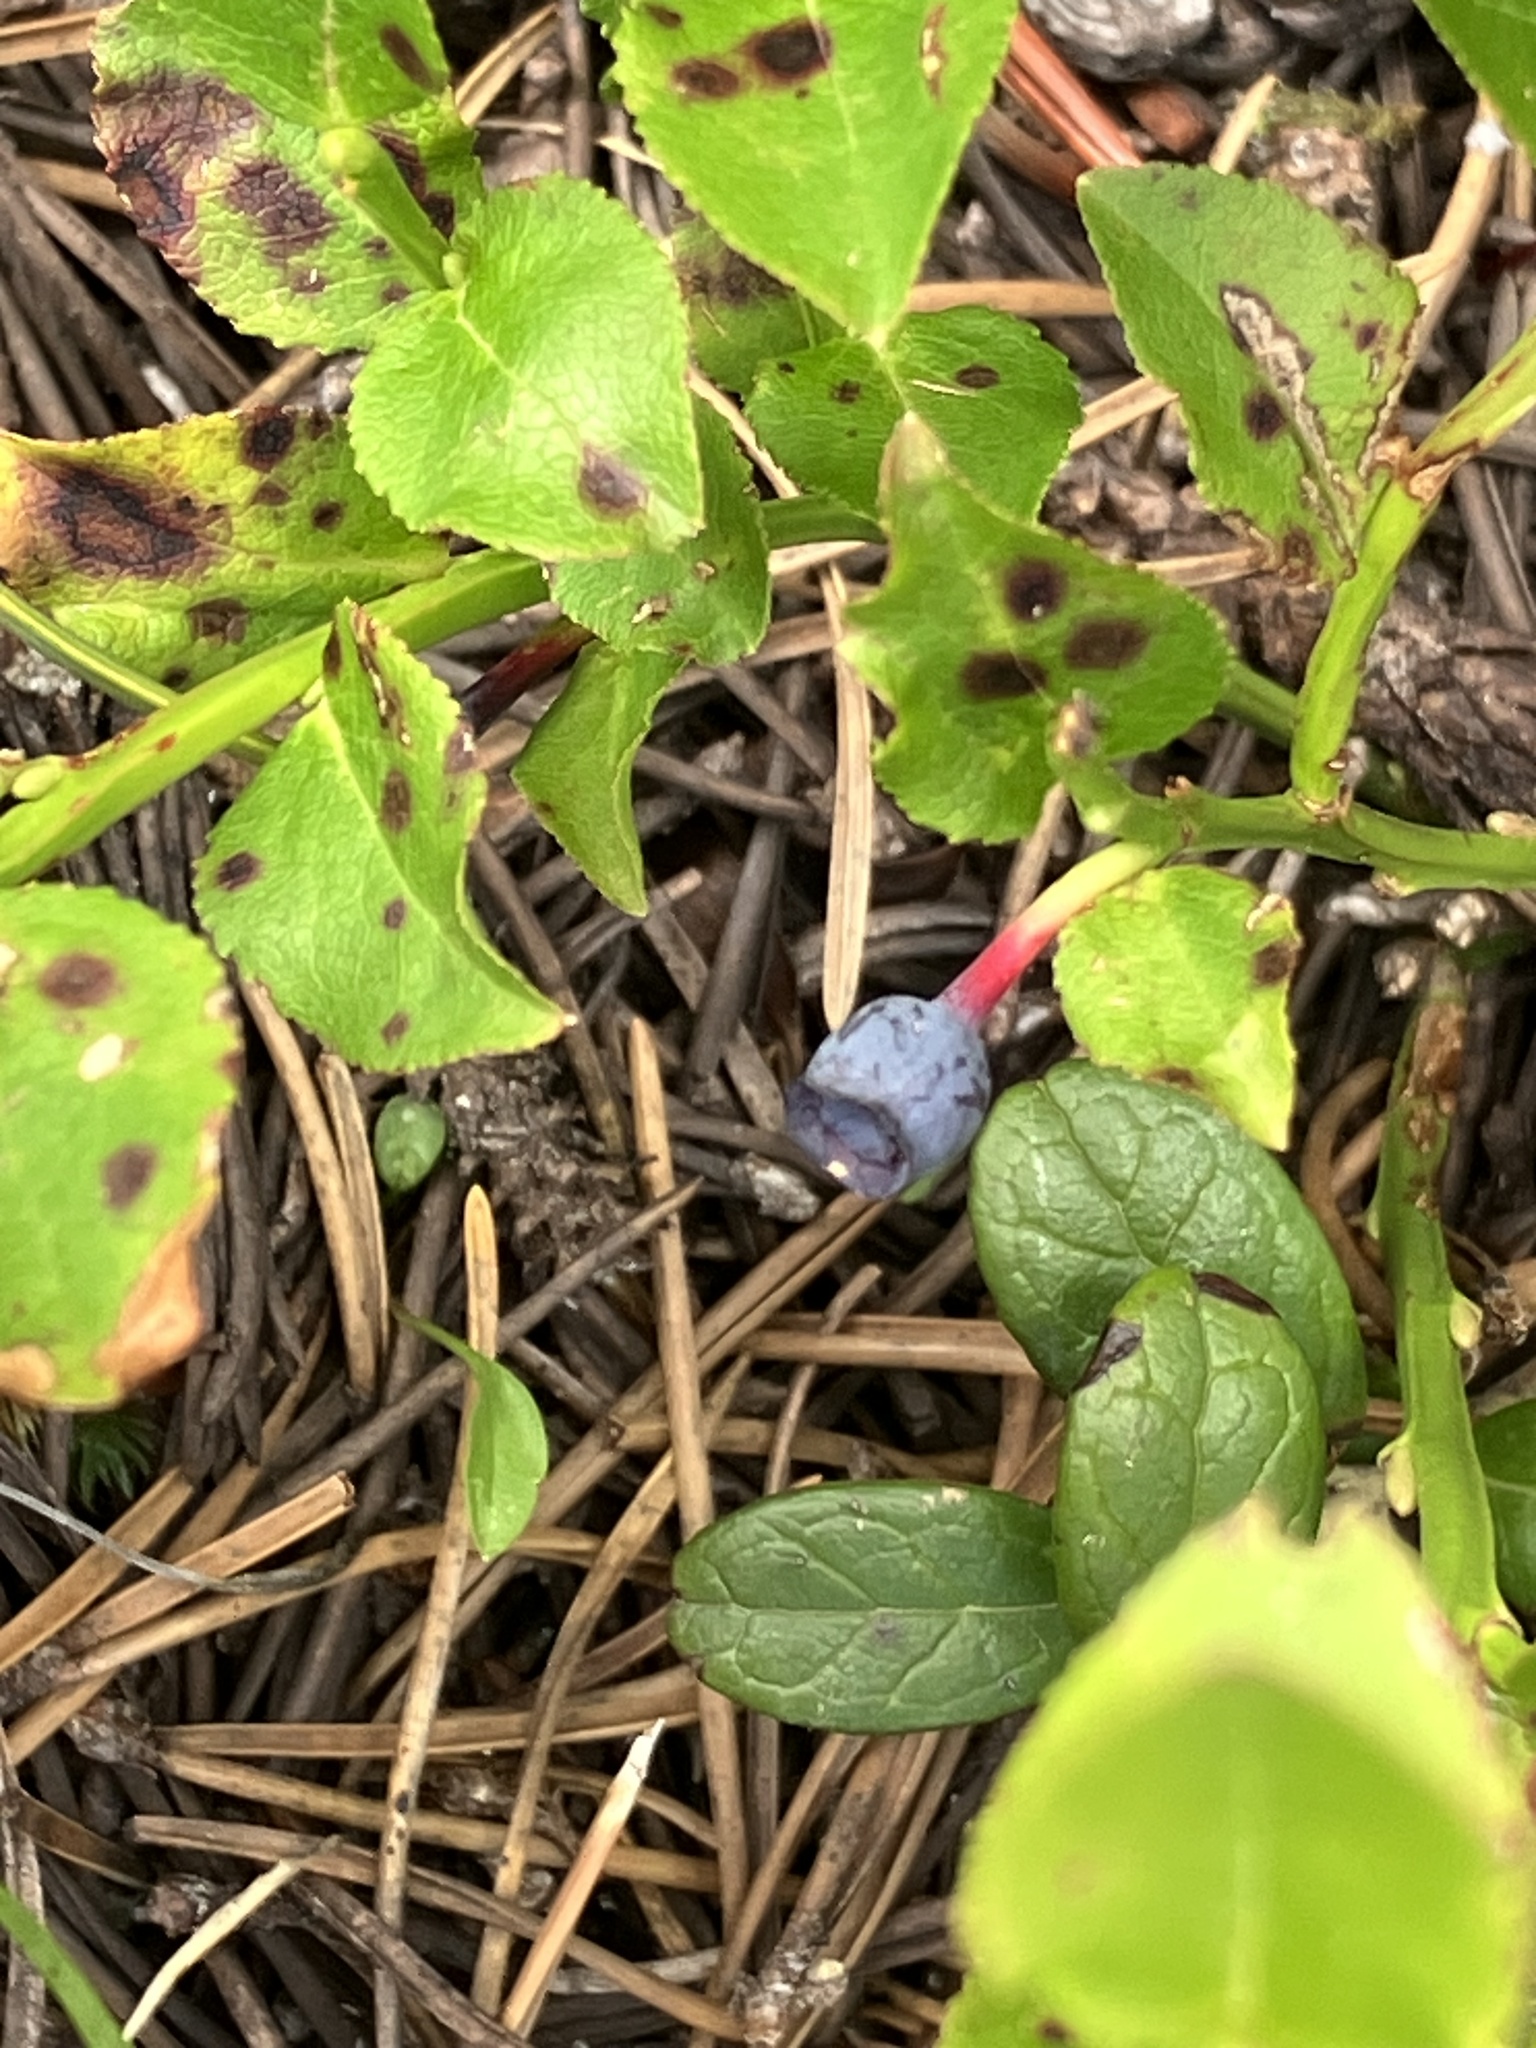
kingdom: Plantae
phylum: Tracheophyta
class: Magnoliopsida
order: Ericales
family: Ericaceae
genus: Vaccinium
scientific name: Vaccinium myrtillus
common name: Bilberry
